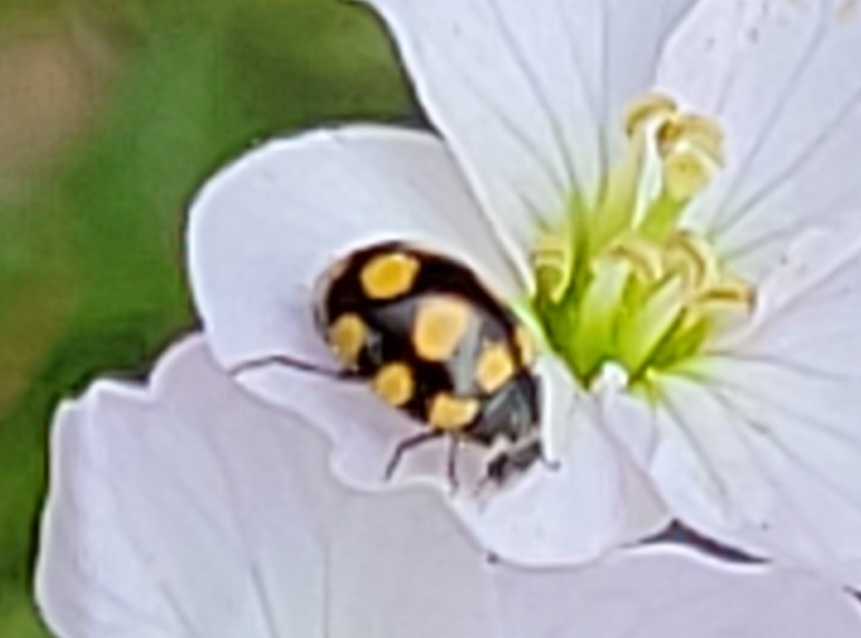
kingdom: Animalia
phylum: Arthropoda
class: Insecta
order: Coleoptera
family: Coccinellidae
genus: Coccinula
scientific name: Coccinula quatuordecimpustulata
